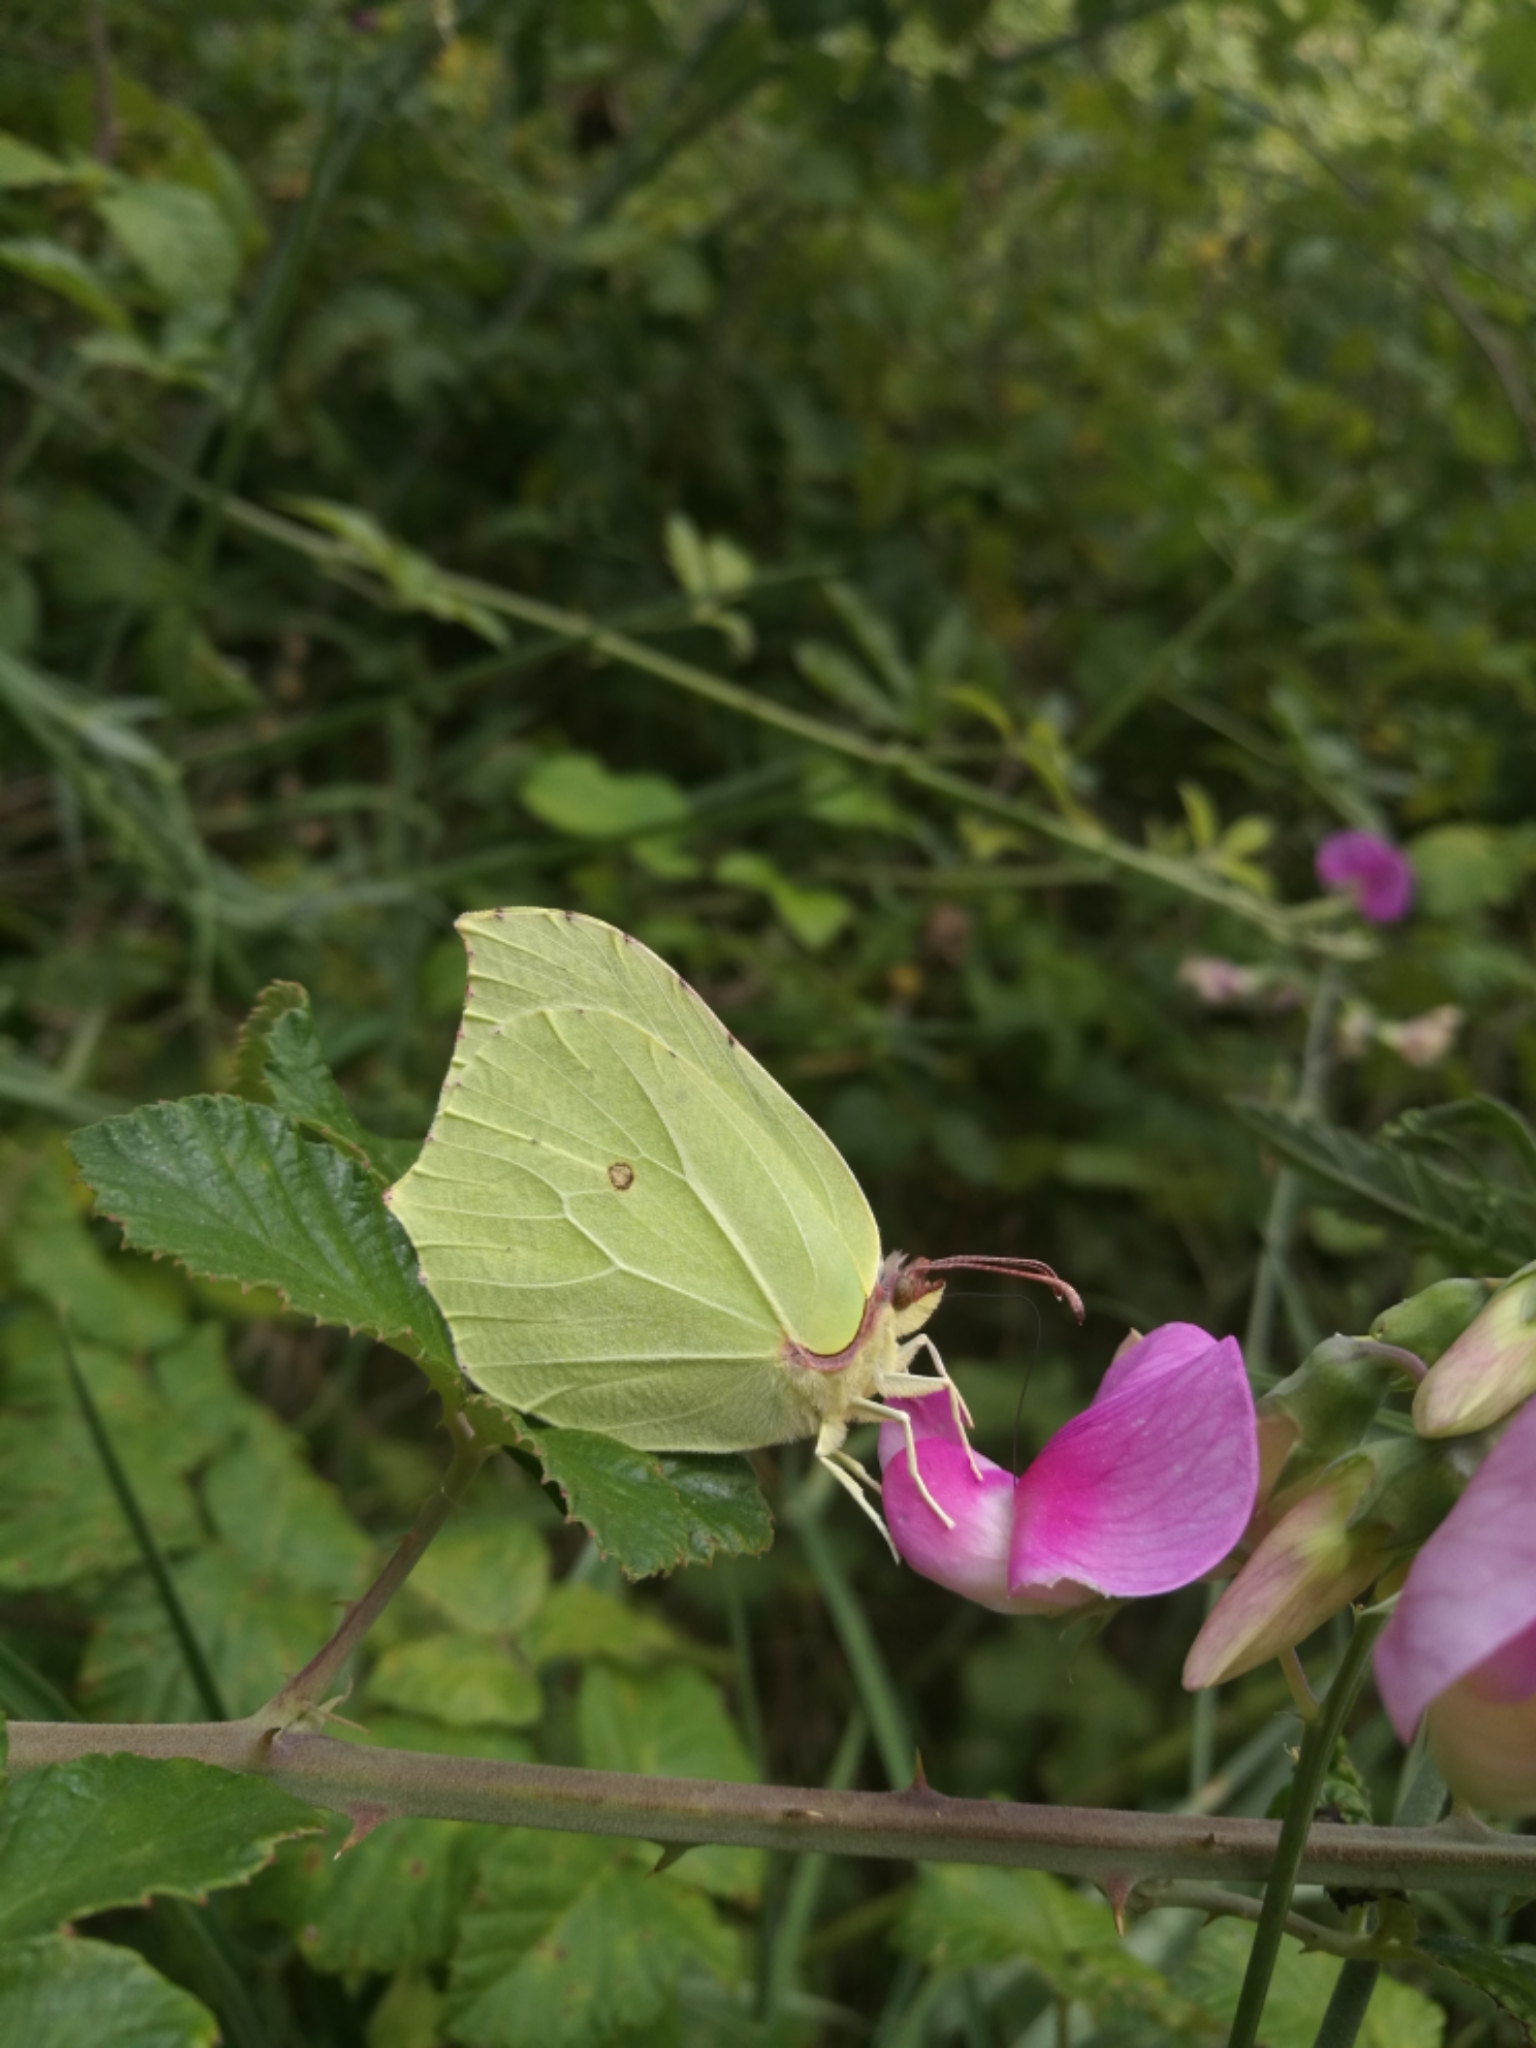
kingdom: Animalia
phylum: Arthropoda
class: Insecta
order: Lepidoptera
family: Pieridae
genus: Gonepteryx
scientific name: Gonepteryx rhamni
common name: Brimstone
